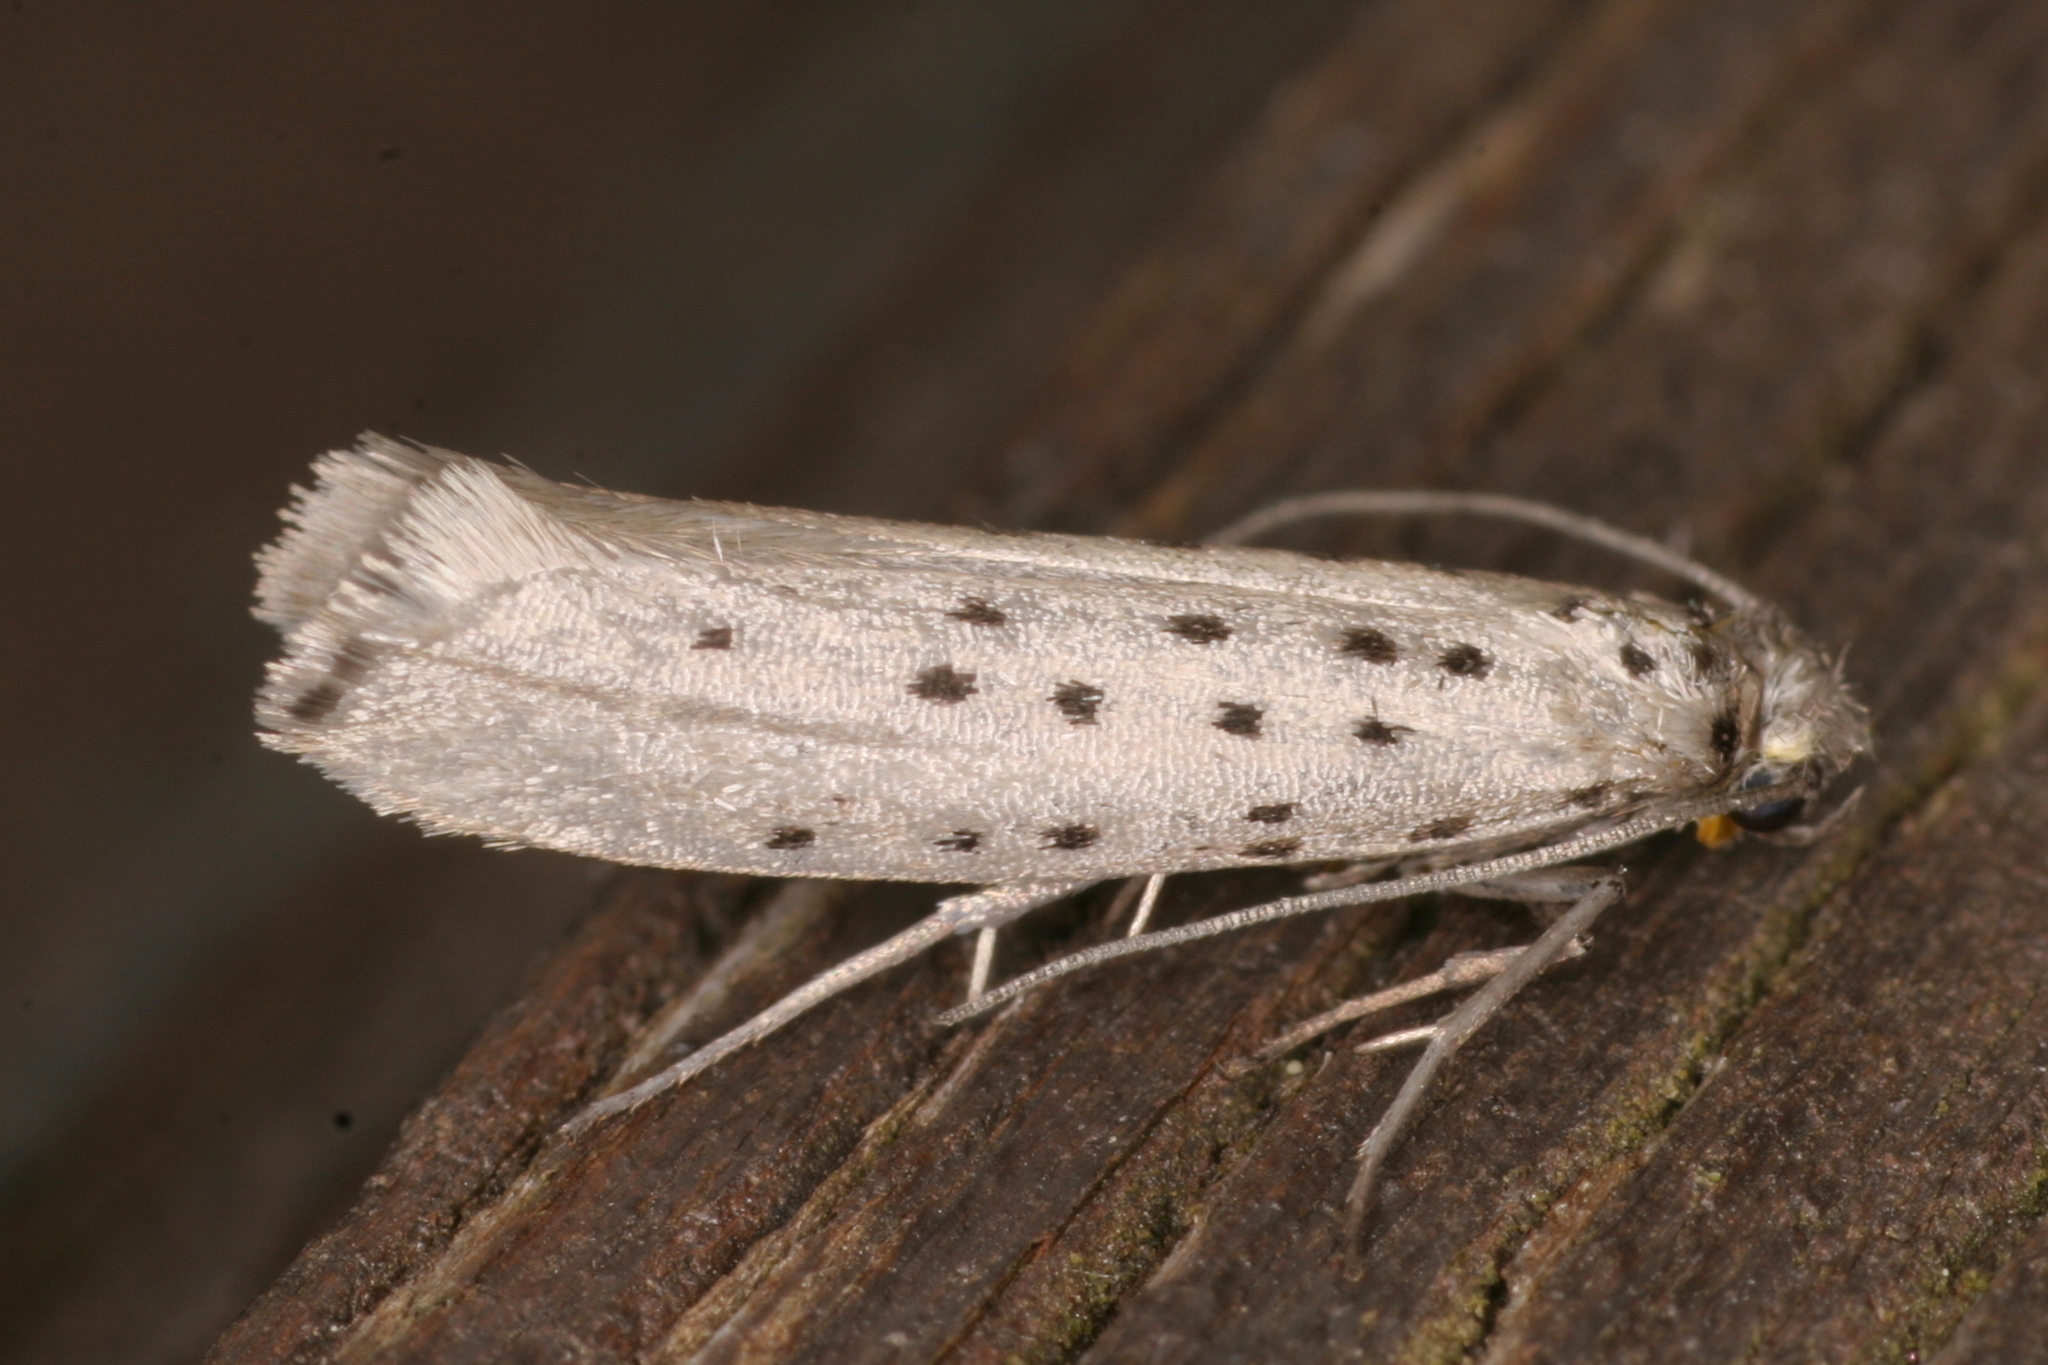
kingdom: Animalia
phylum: Arthropoda
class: Insecta
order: Lepidoptera
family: Yponomeutidae
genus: Yponomeuta
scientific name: Yponomeuta vigintipunctata
